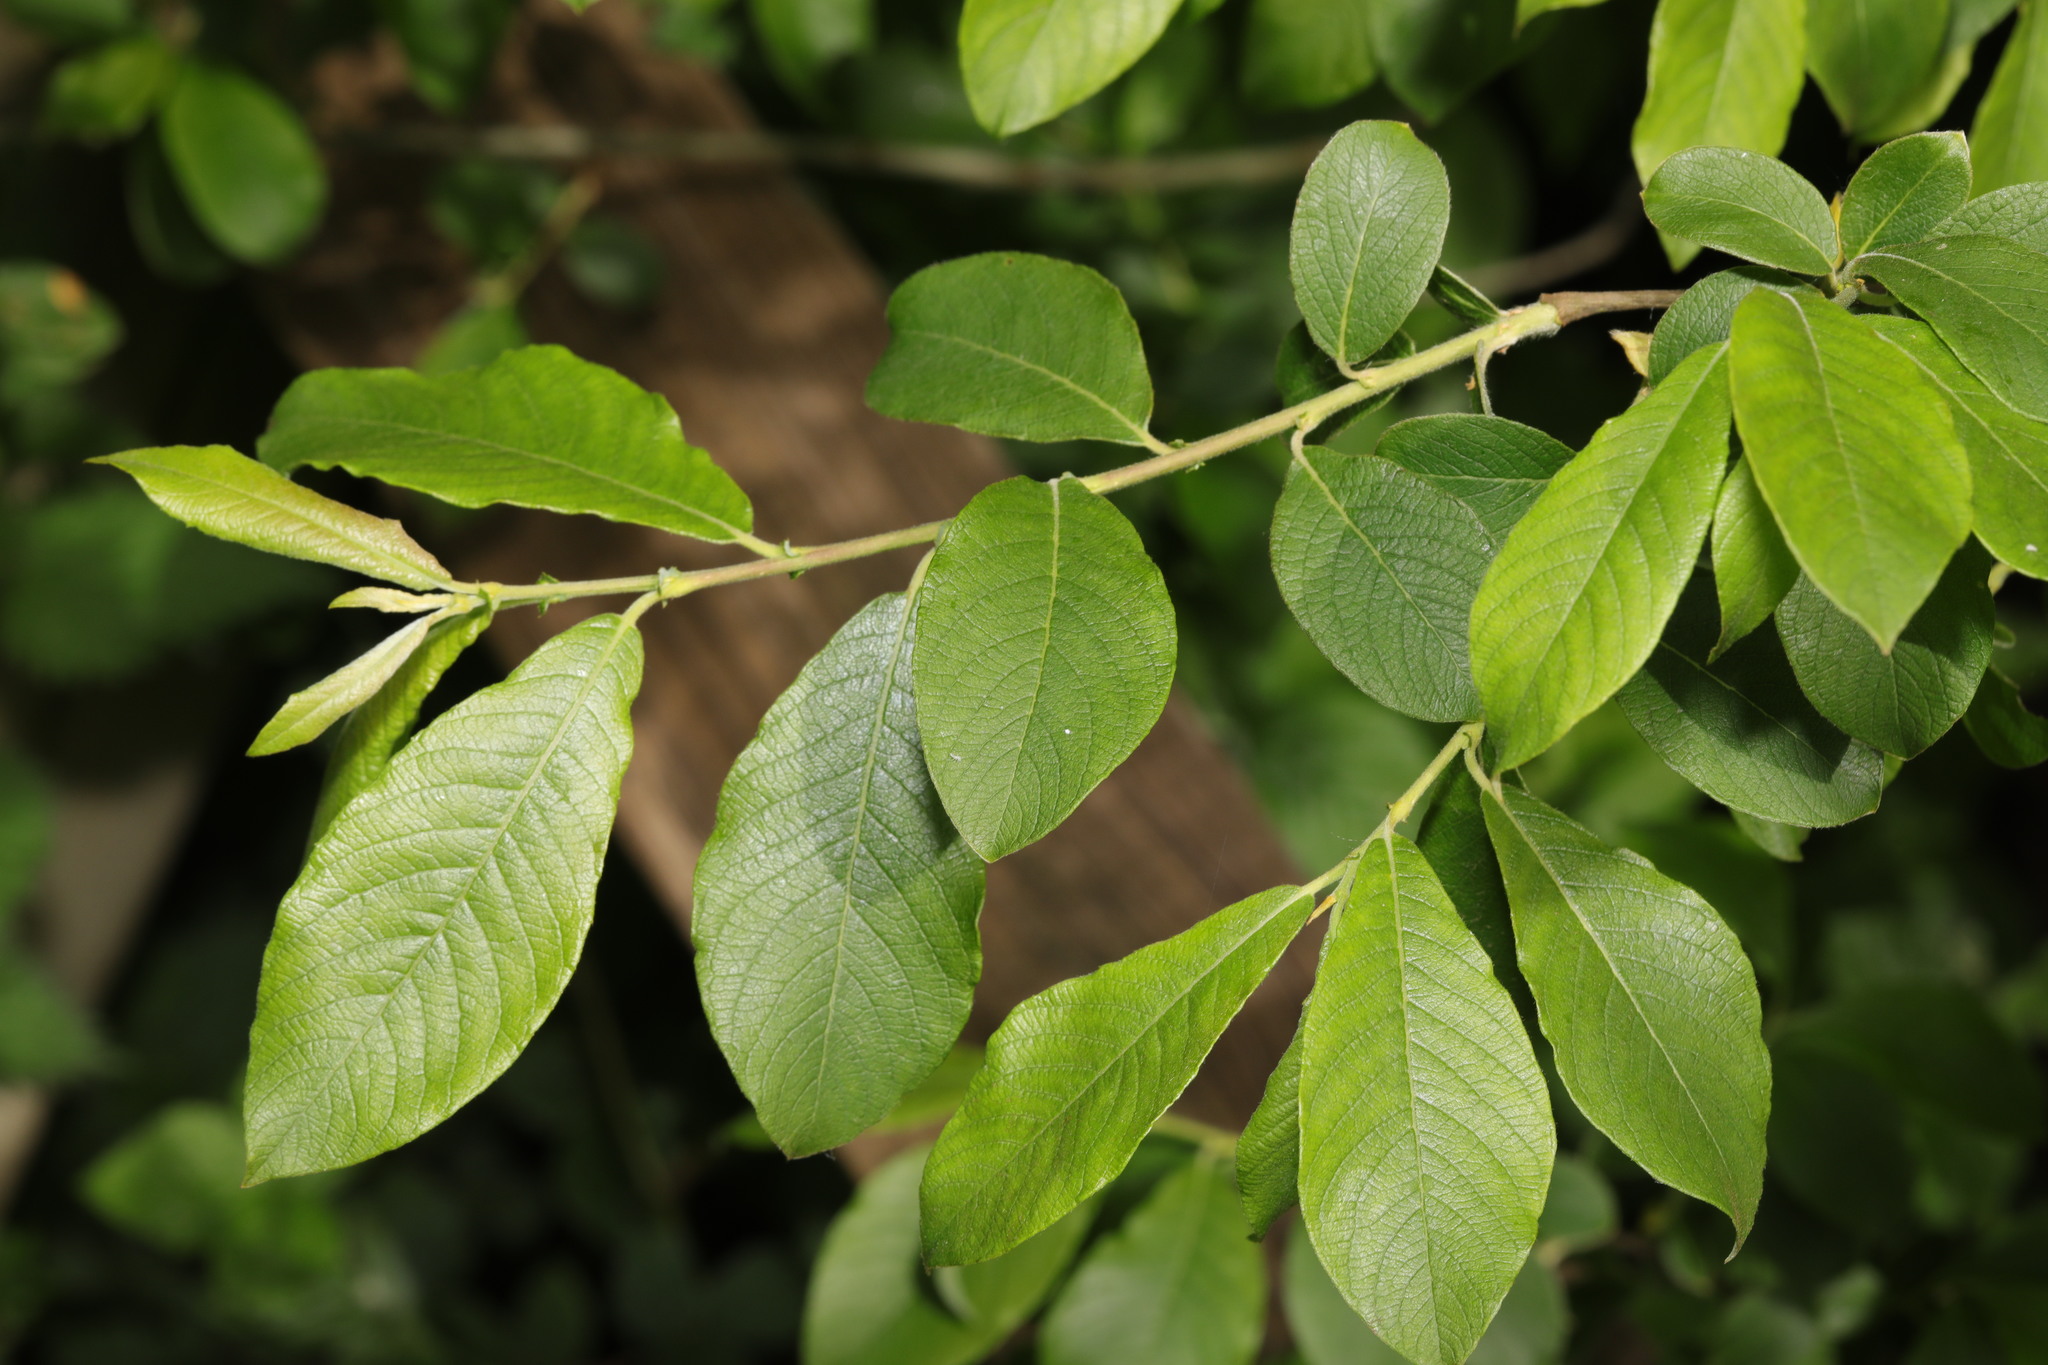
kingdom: Plantae
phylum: Tracheophyta
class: Magnoliopsida
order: Malpighiales
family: Salicaceae
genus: Salix
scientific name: Salix cinerea
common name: Common sallow
